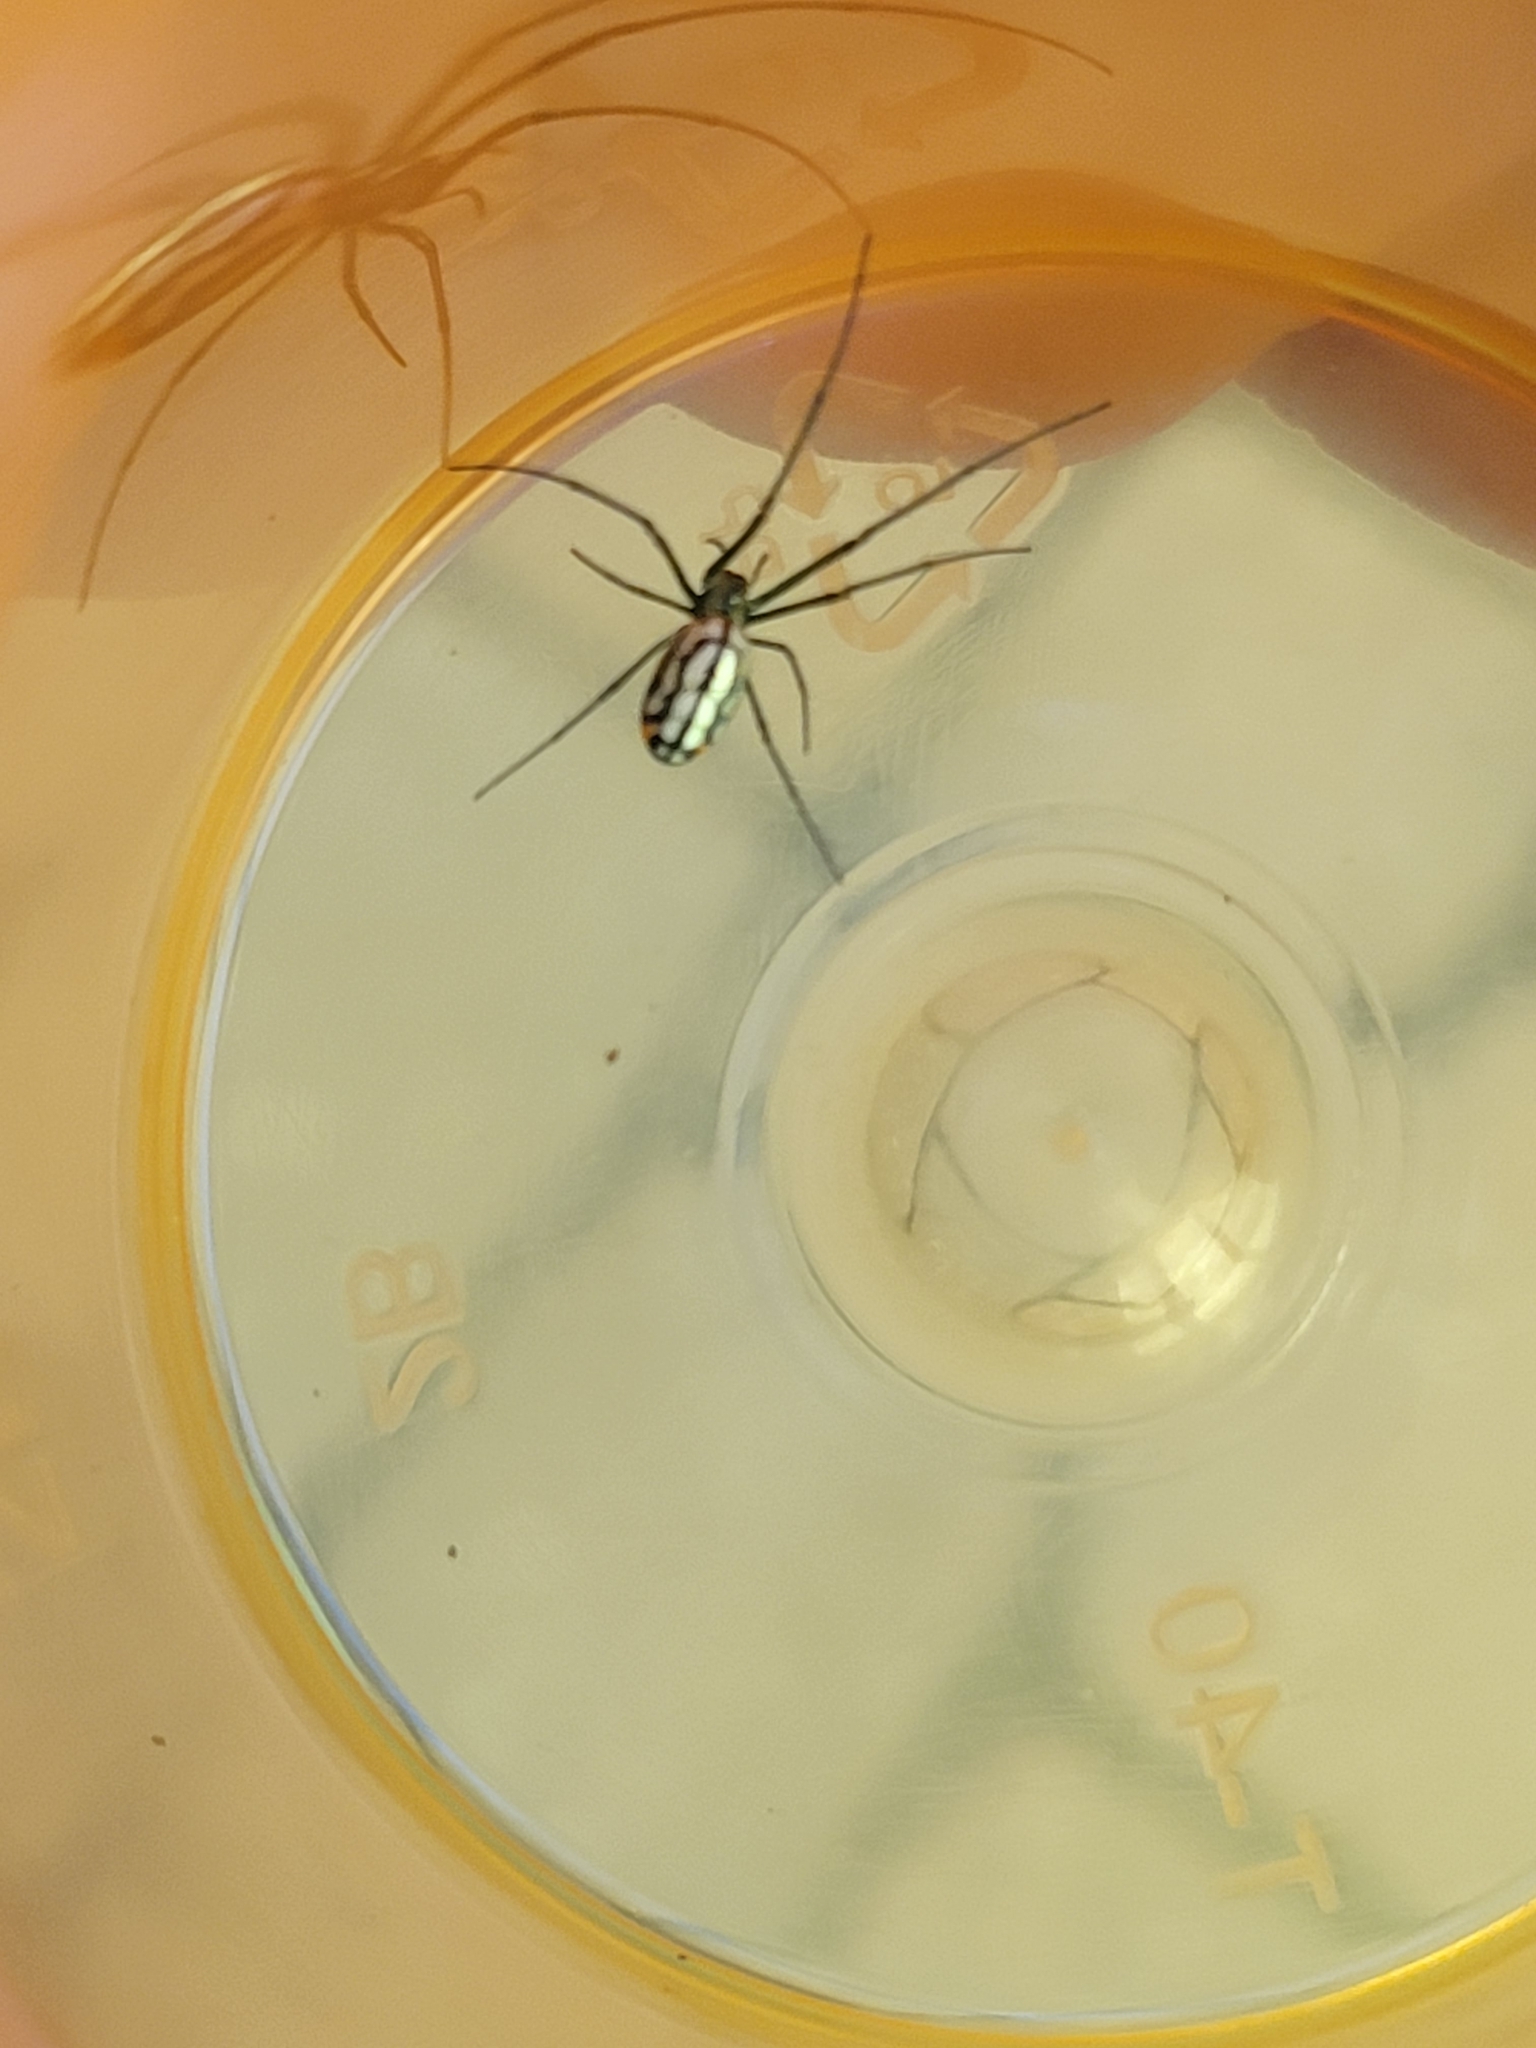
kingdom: Animalia
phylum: Arthropoda
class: Arachnida
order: Araneae
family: Tetragnathidae
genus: Leucauge
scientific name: Leucauge argyrobapta
